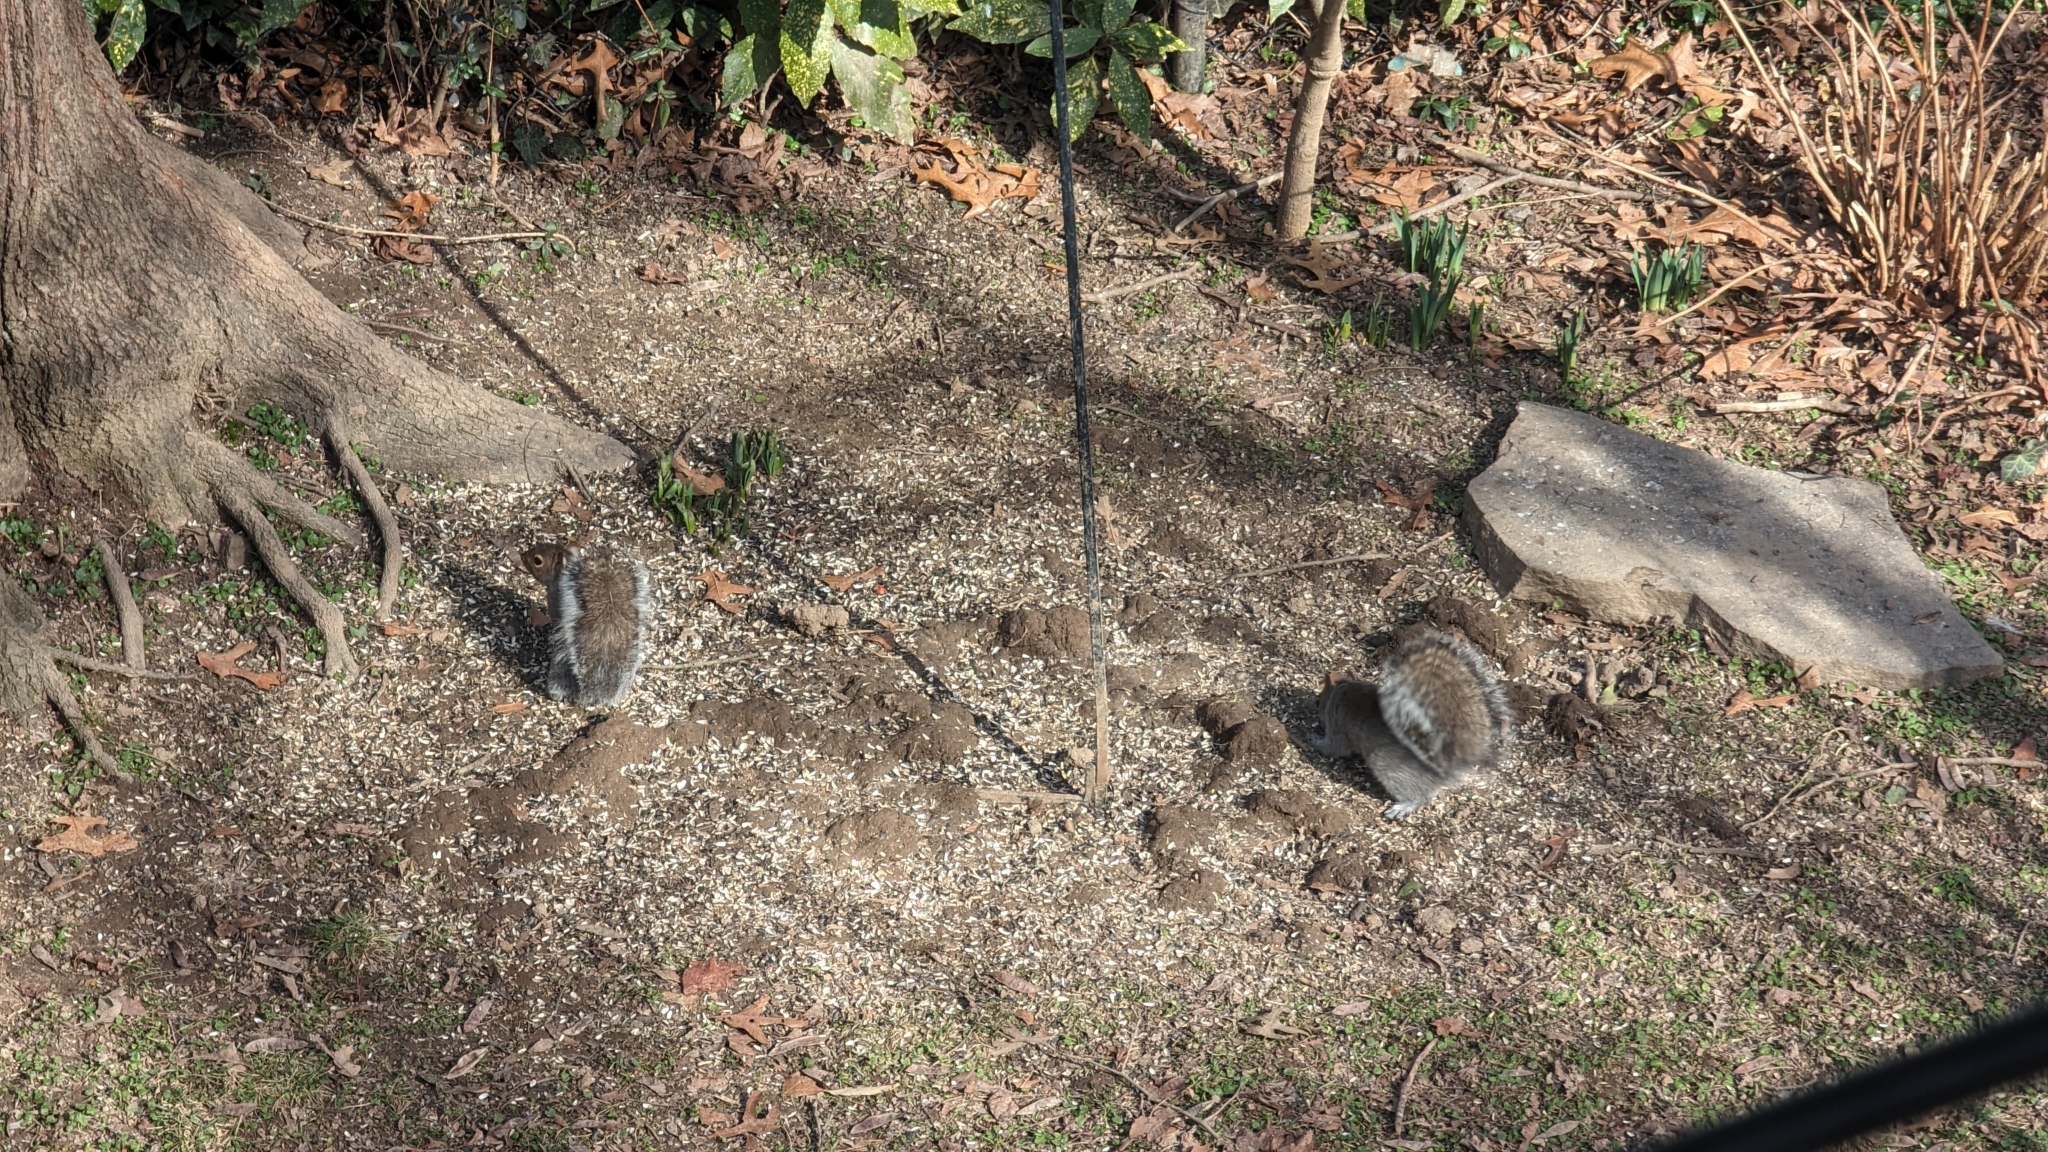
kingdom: Animalia
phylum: Chordata
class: Mammalia
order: Rodentia
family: Sciuridae
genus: Sciurus
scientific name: Sciurus carolinensis
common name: Eastern gray squirrel
